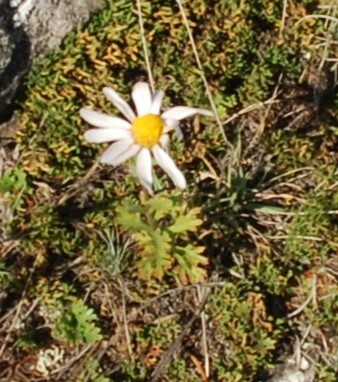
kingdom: Plantae
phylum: Tracheophyta
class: Magnoliopsida
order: Asterales
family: Asteraceae
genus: Chrysanthemum
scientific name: Chrysanthemum zawadzkii
